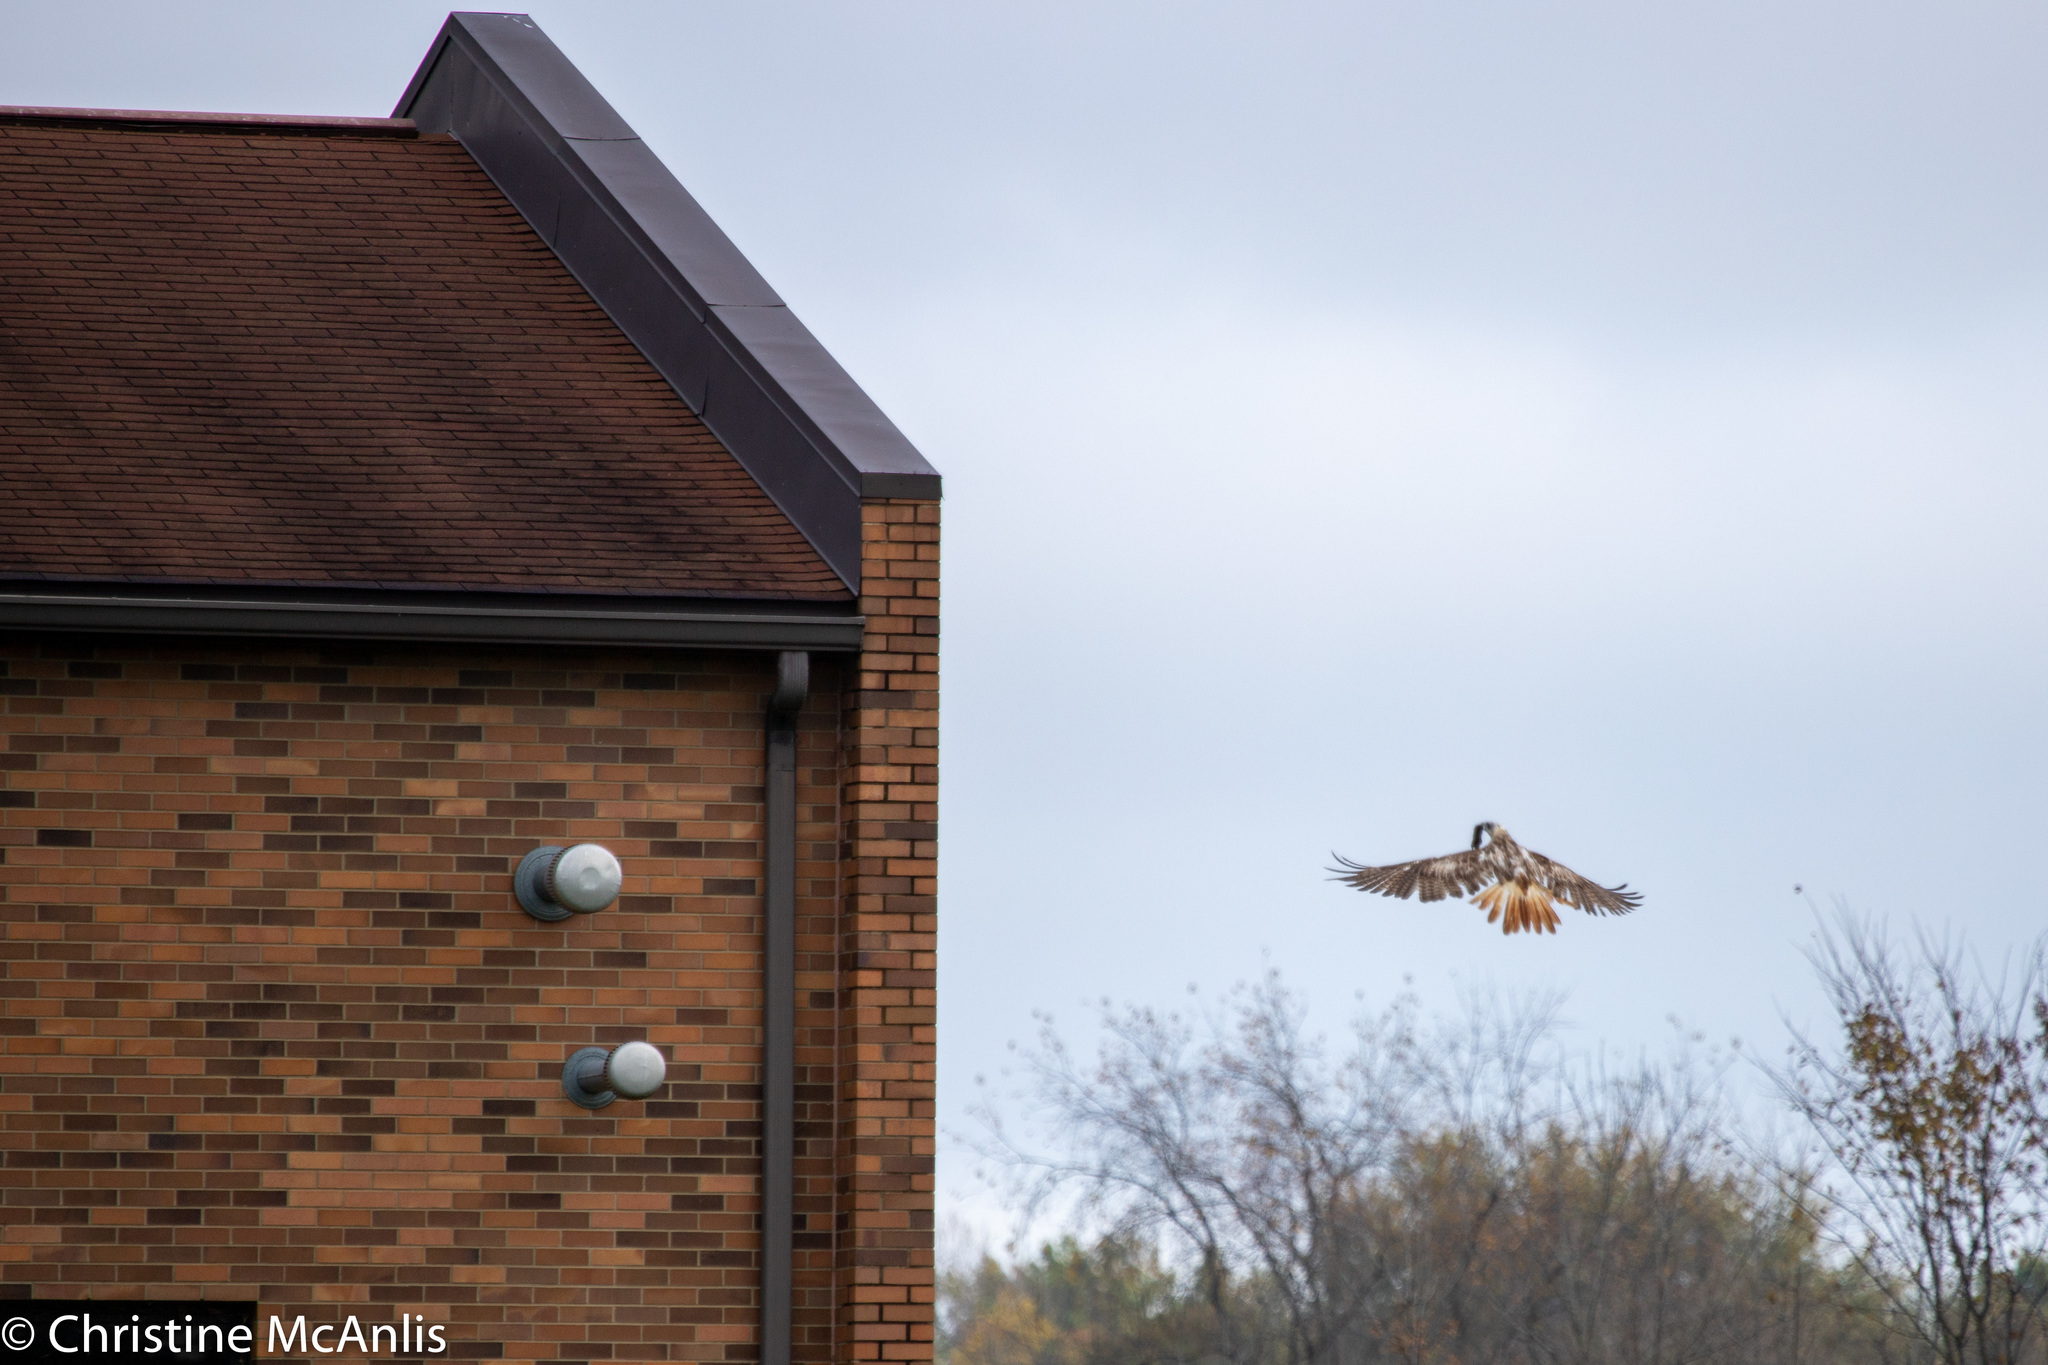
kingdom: Animalia
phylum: Chordata
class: Aves
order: Accipitriformes
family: Accipitridae
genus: Buteo
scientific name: Buteo jamaicensis
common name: Red-tailed hawk
